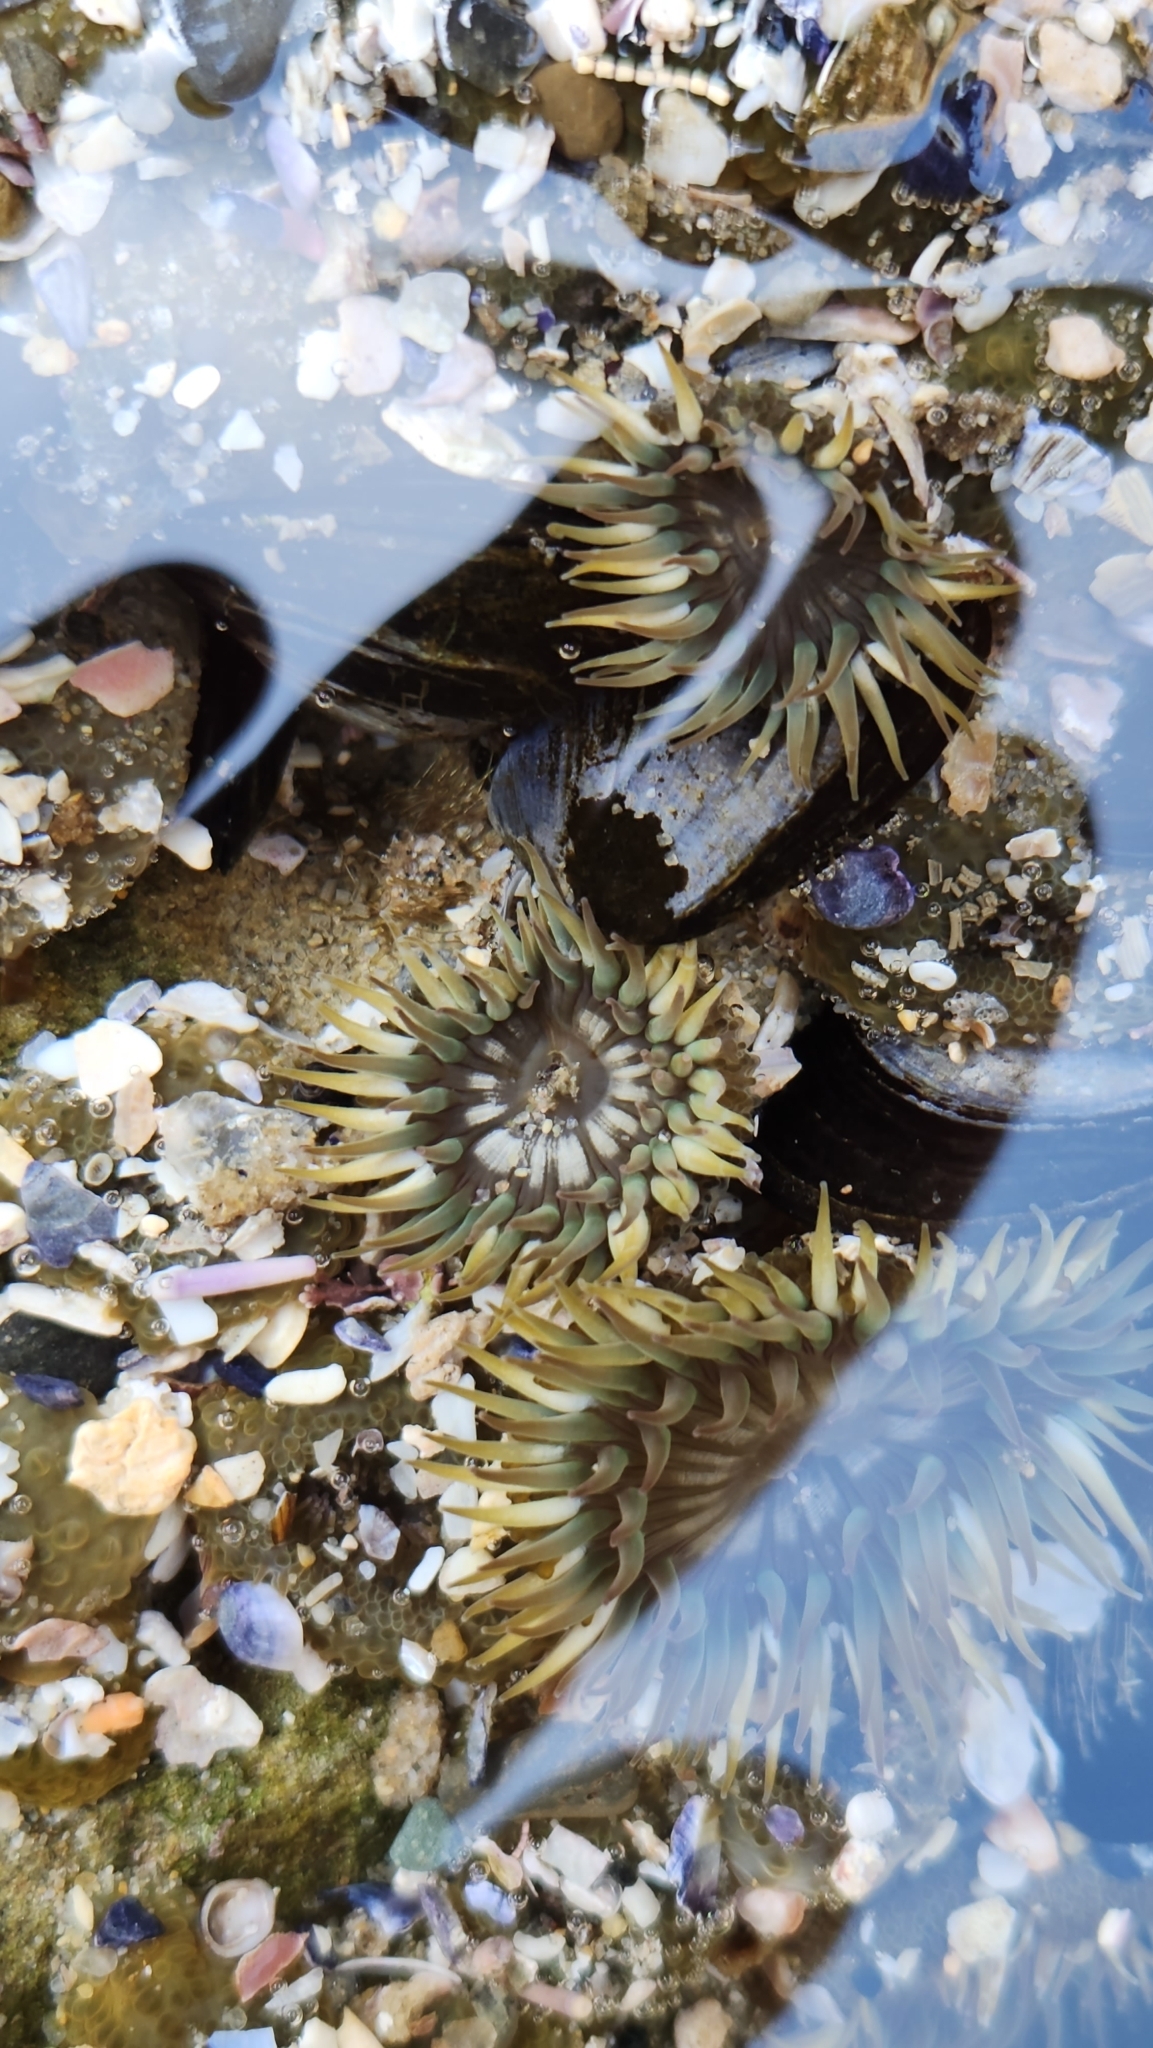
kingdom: Animalia
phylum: Cnidaria
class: Anthozoa
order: Actiniaria
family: Actiniidae
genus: Anthopleura
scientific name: Anthopleura elegantissima
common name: Clonal anemone
